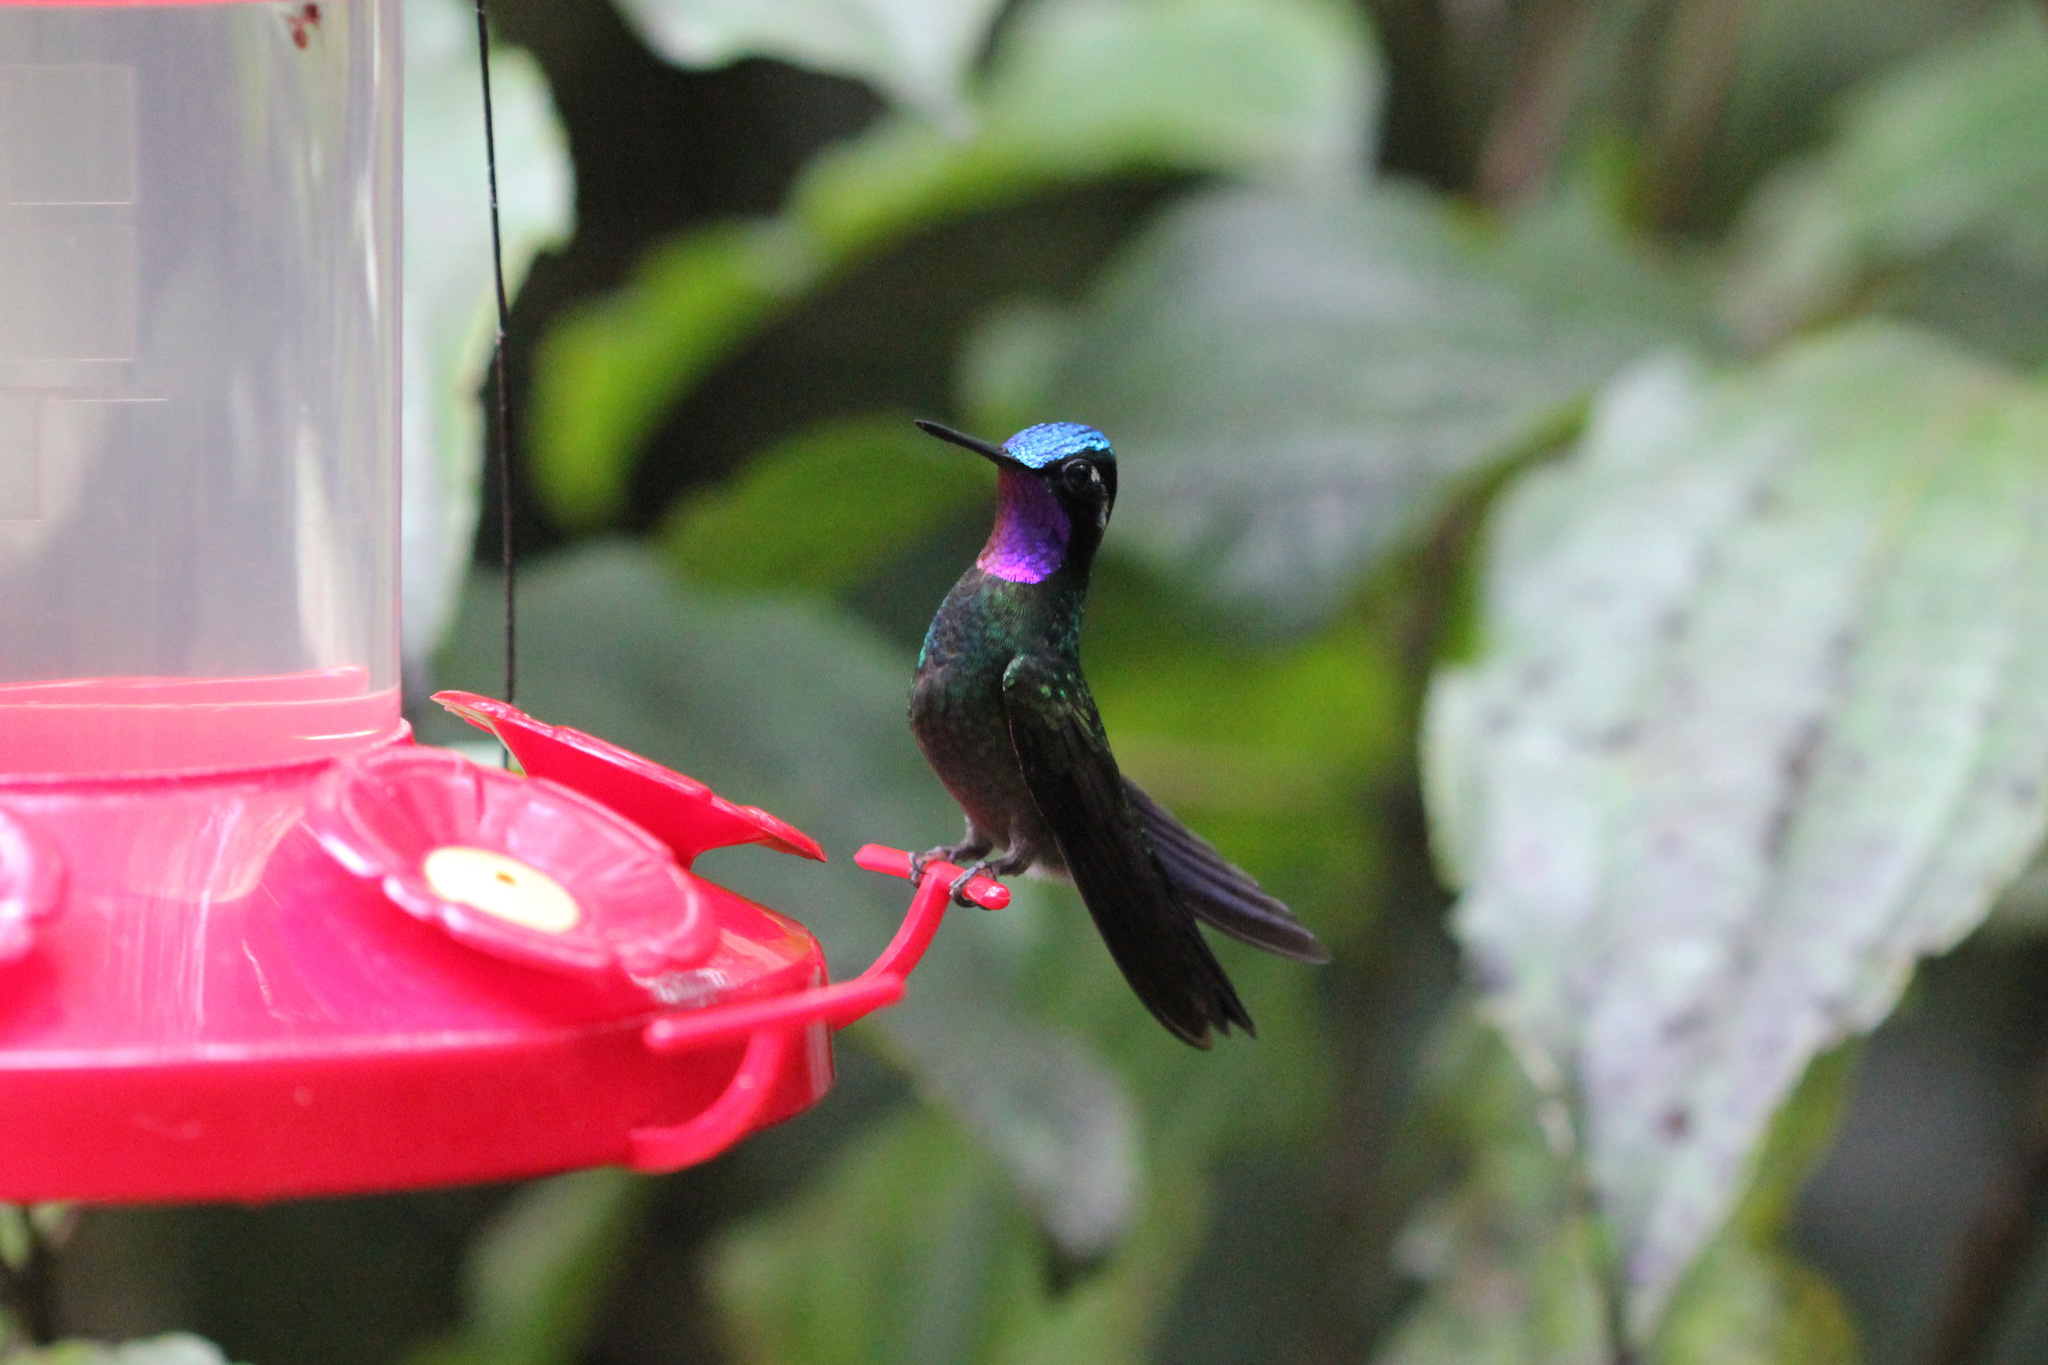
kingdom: Animalia
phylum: Chordata
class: Aves
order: Apodiformes
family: Trochilidae
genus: Lampornis
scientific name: Lampornis calolaemus
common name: Purple-throated mountain-gem
